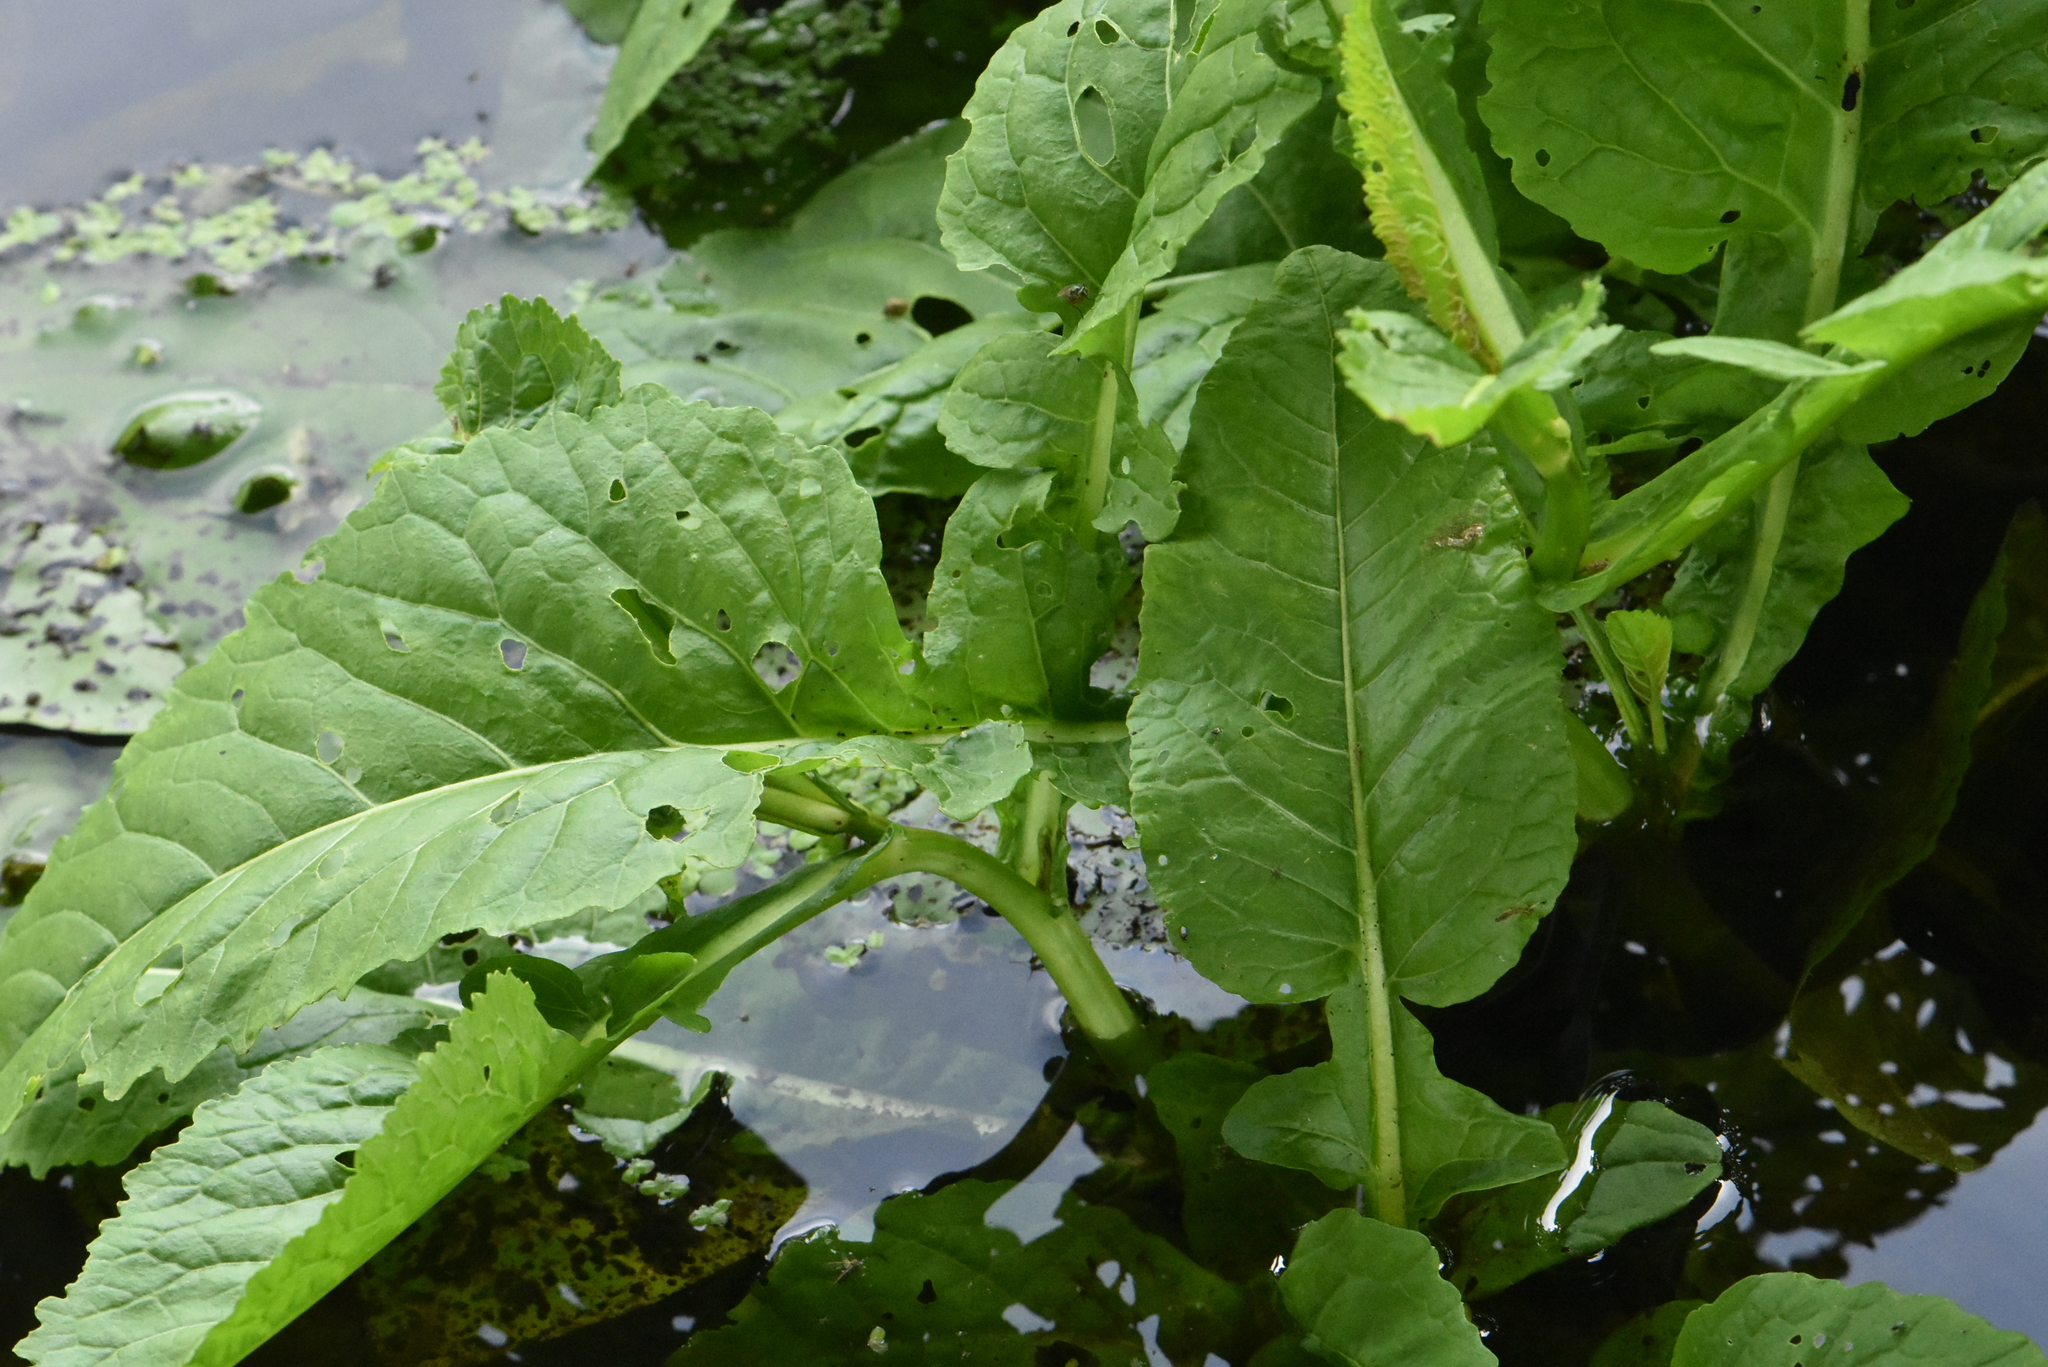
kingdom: Plantae
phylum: Tracheophyta
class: Magnoliopsida
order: Brassicales
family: Brassicaceae
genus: Rorippa
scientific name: Rorippa amphibia
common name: Great yellow-cress
